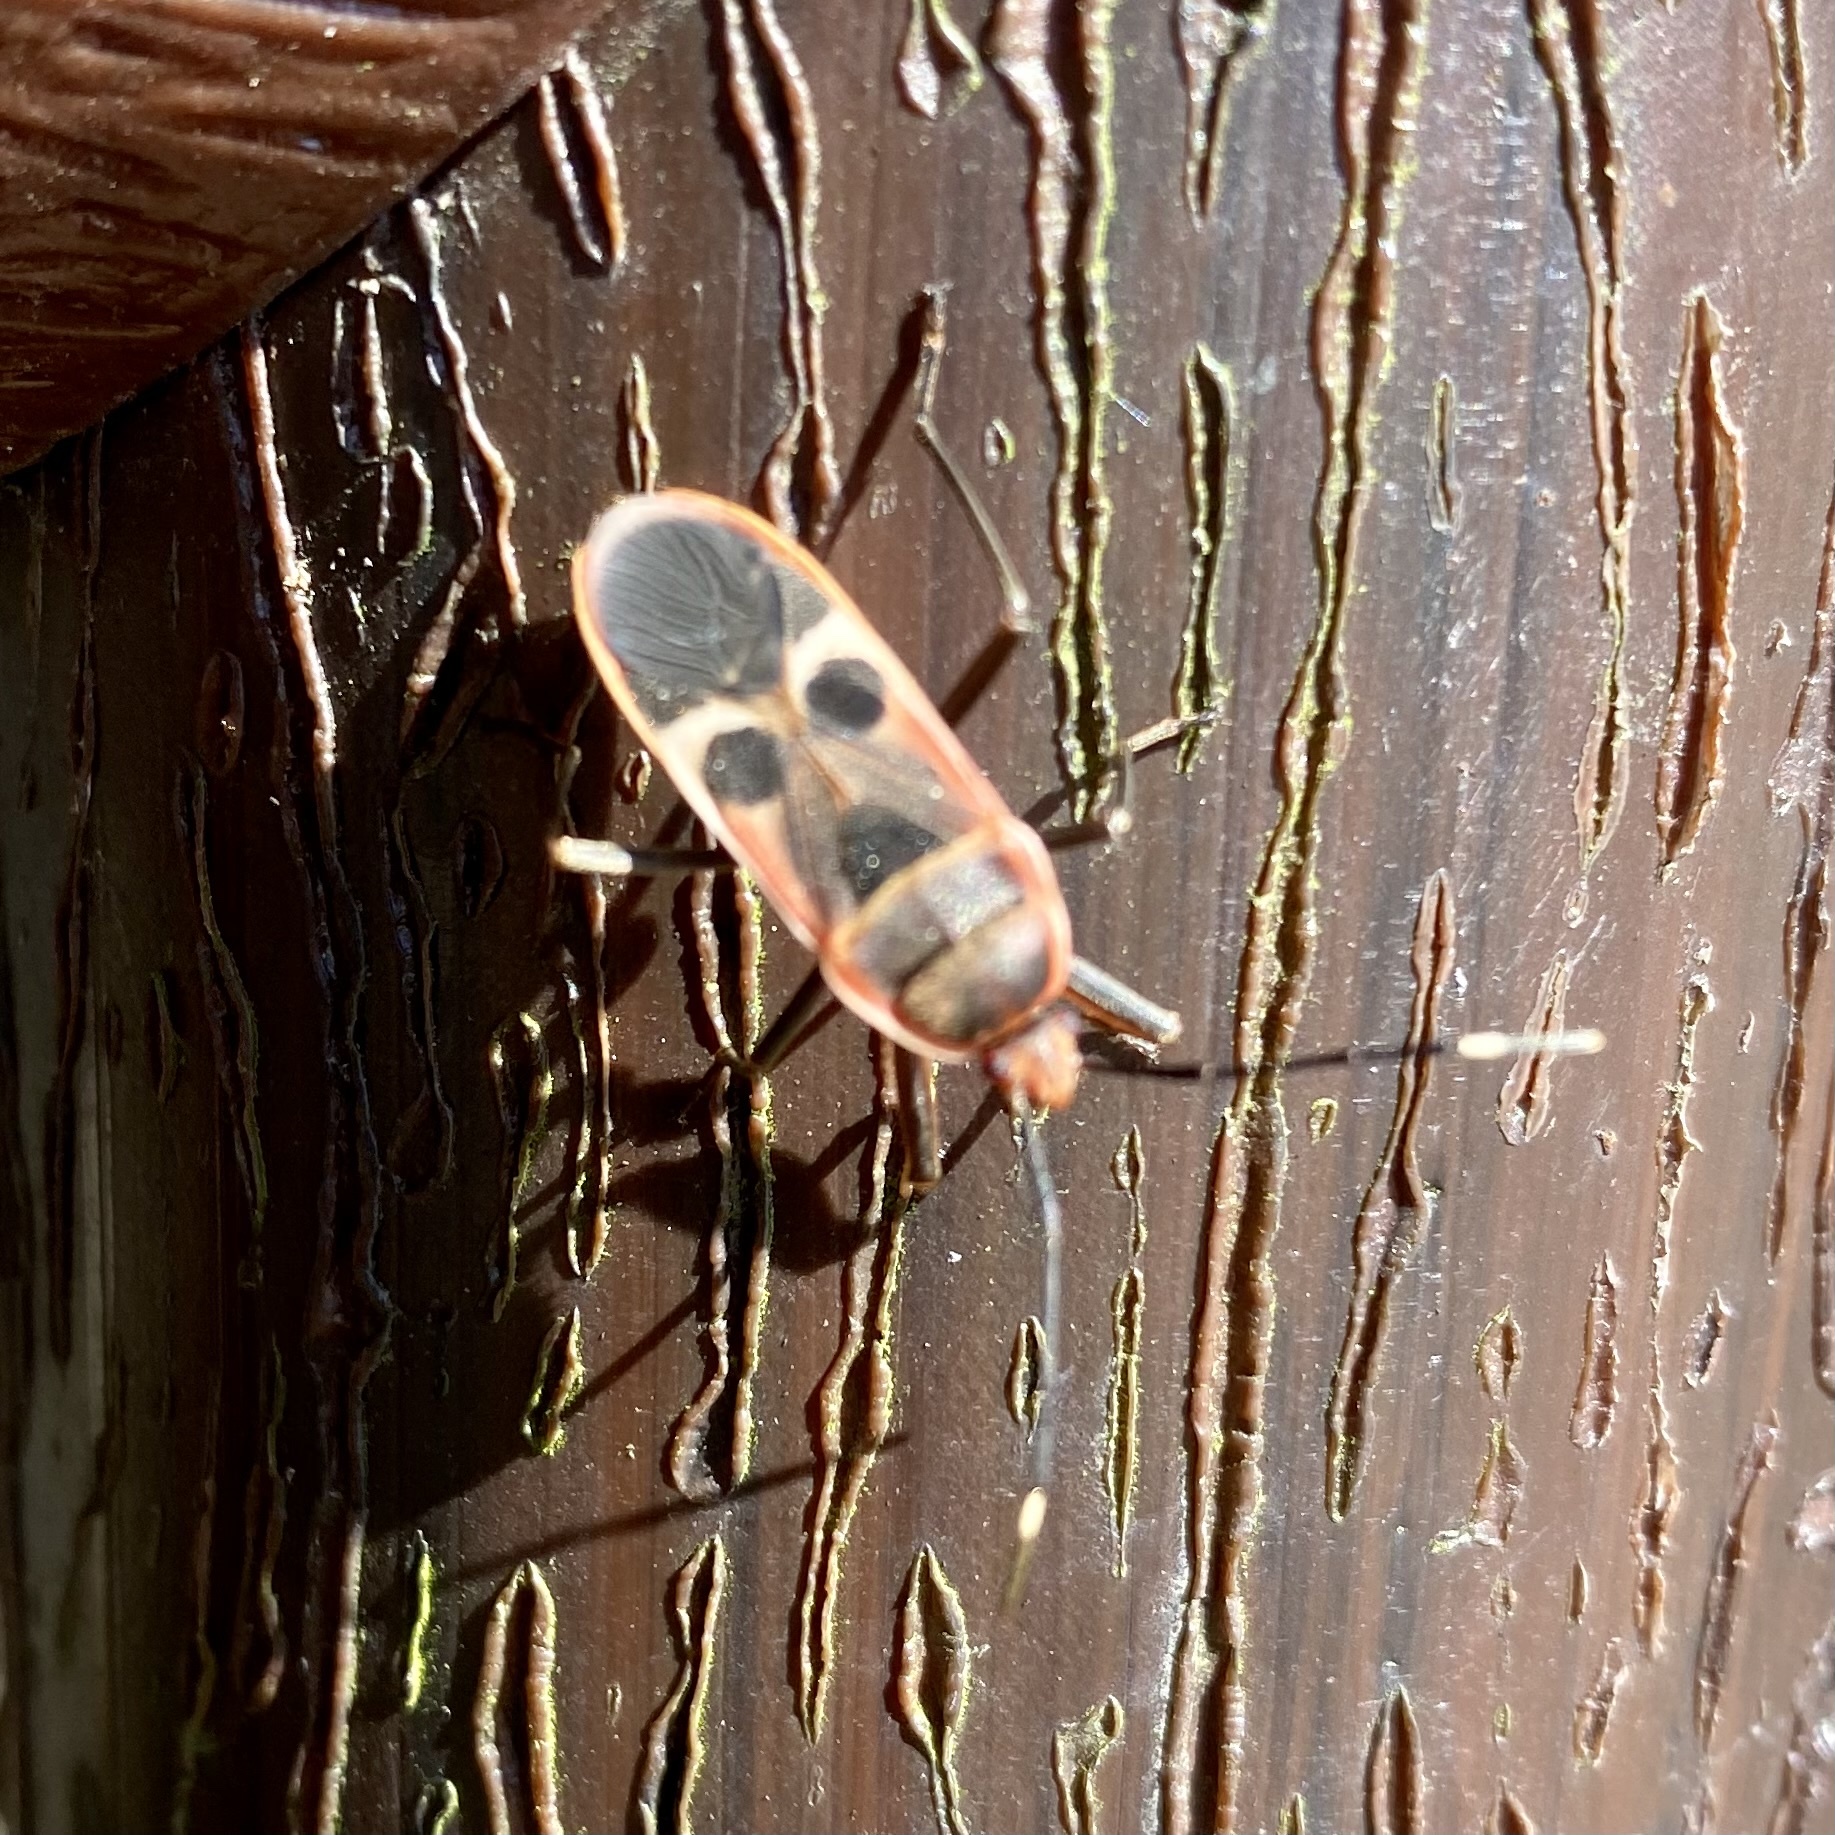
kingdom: Animalia
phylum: Arthropoda
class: Insecta
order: Hemiptera
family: Largidae
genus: Physopelta
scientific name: Physopelta gutta
